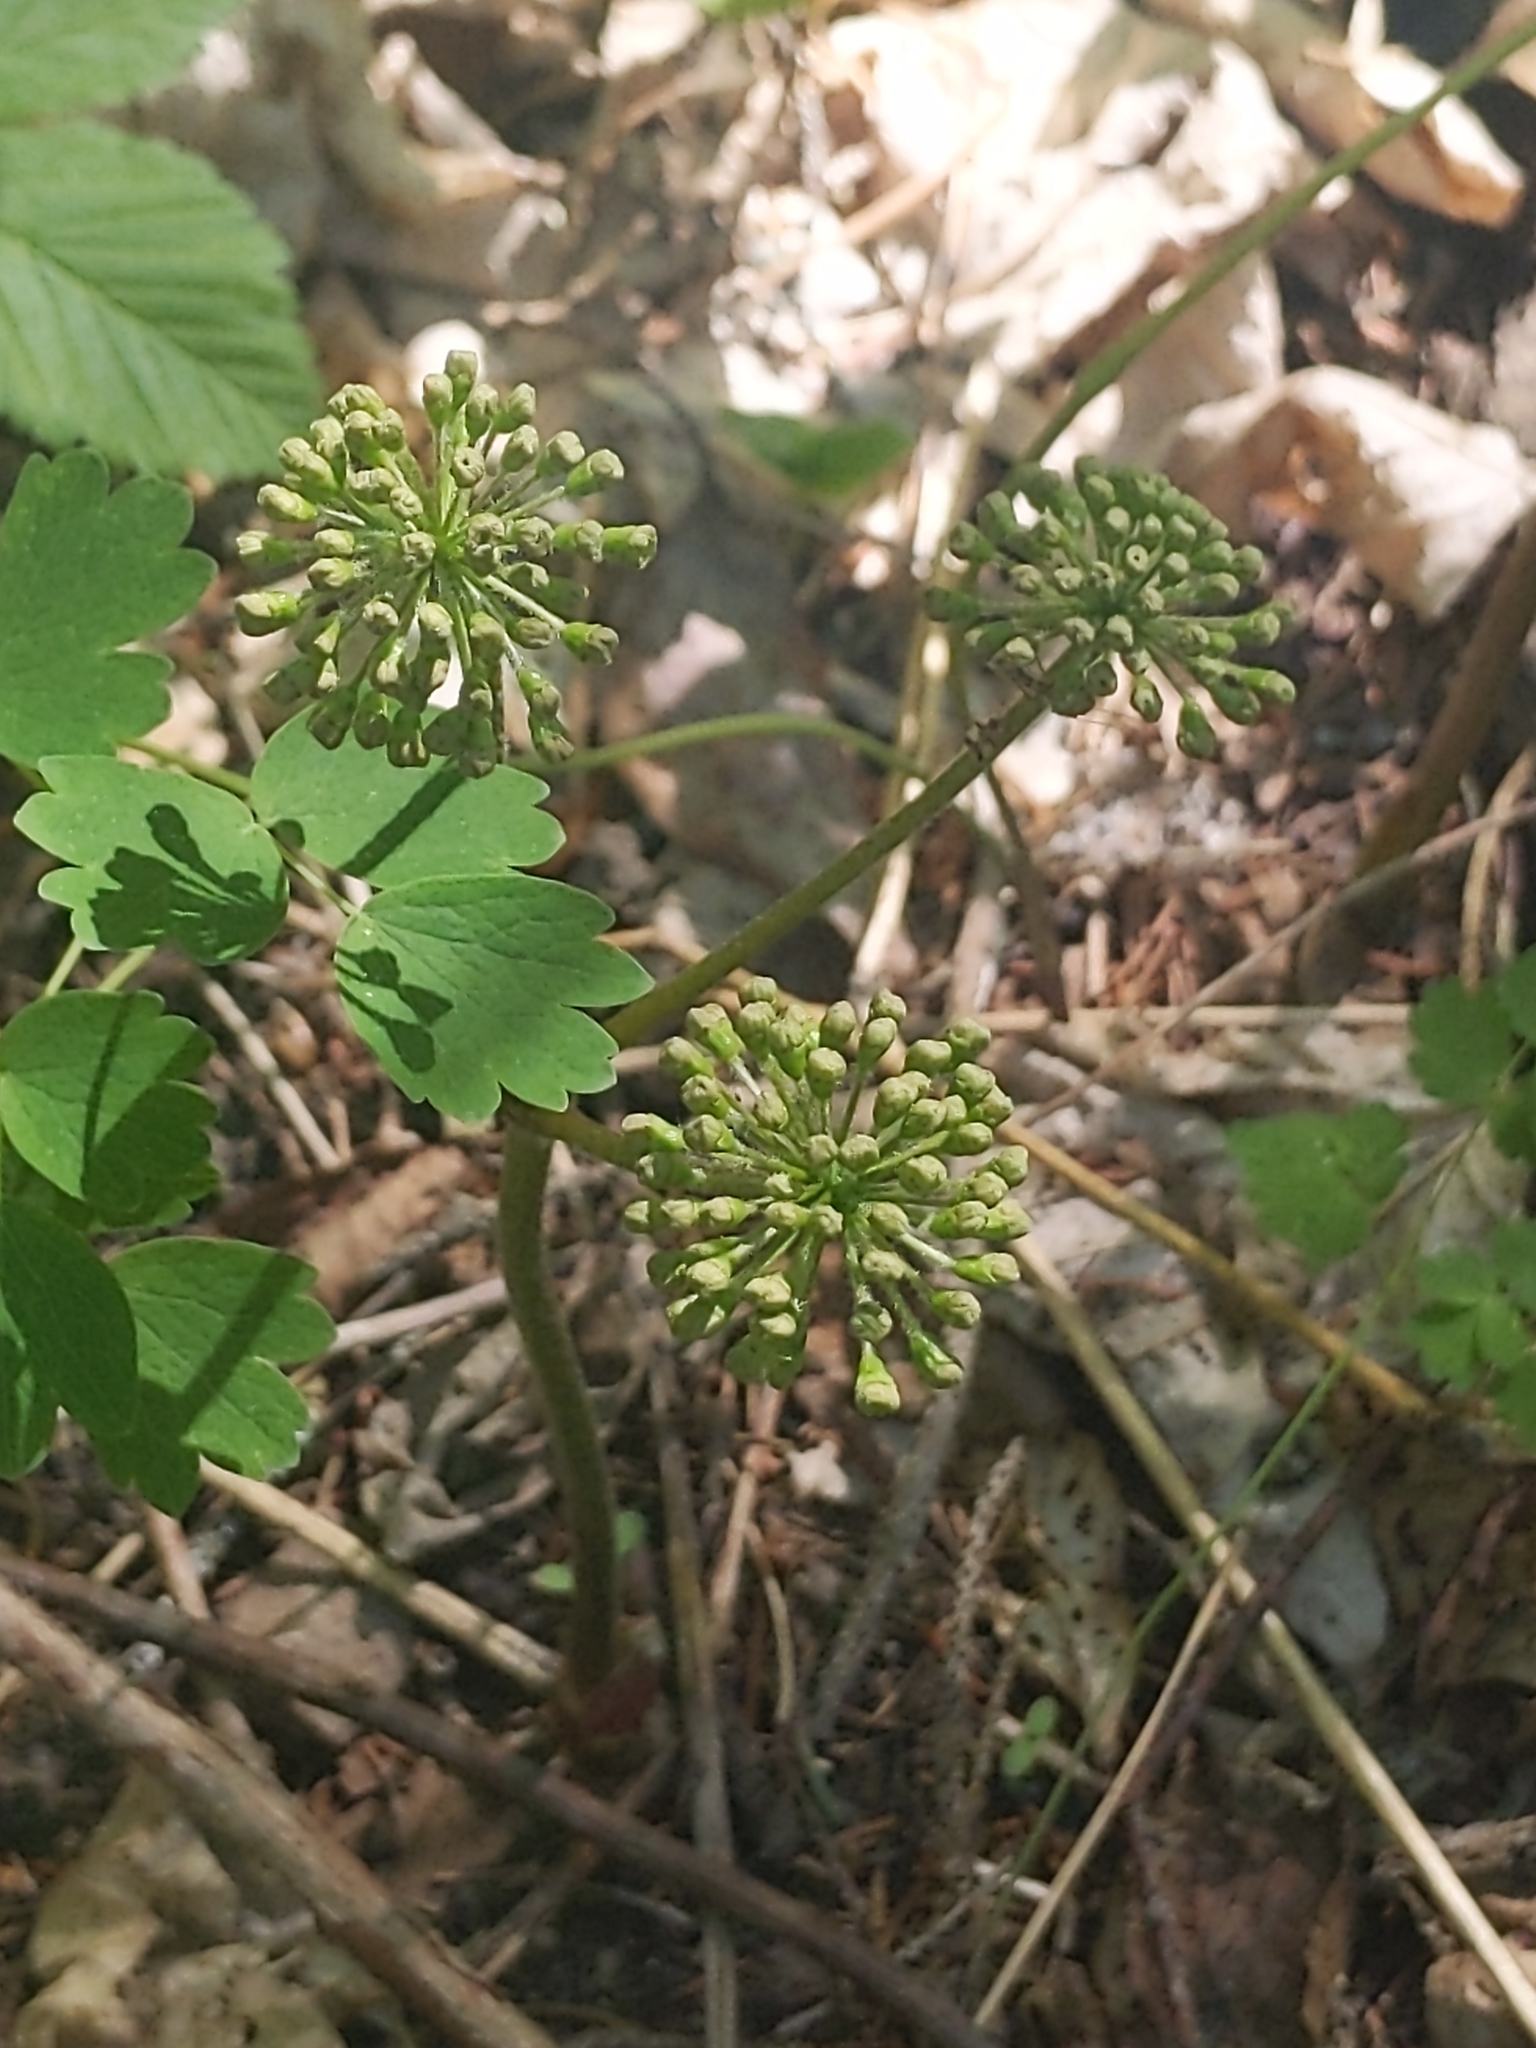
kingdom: Plantae
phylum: Tracheophyta
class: Magnoliopsida
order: Apiales
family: Araliaceae
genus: Aralia
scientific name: Aralia nudicaulis
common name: Wild sarsaparilla
